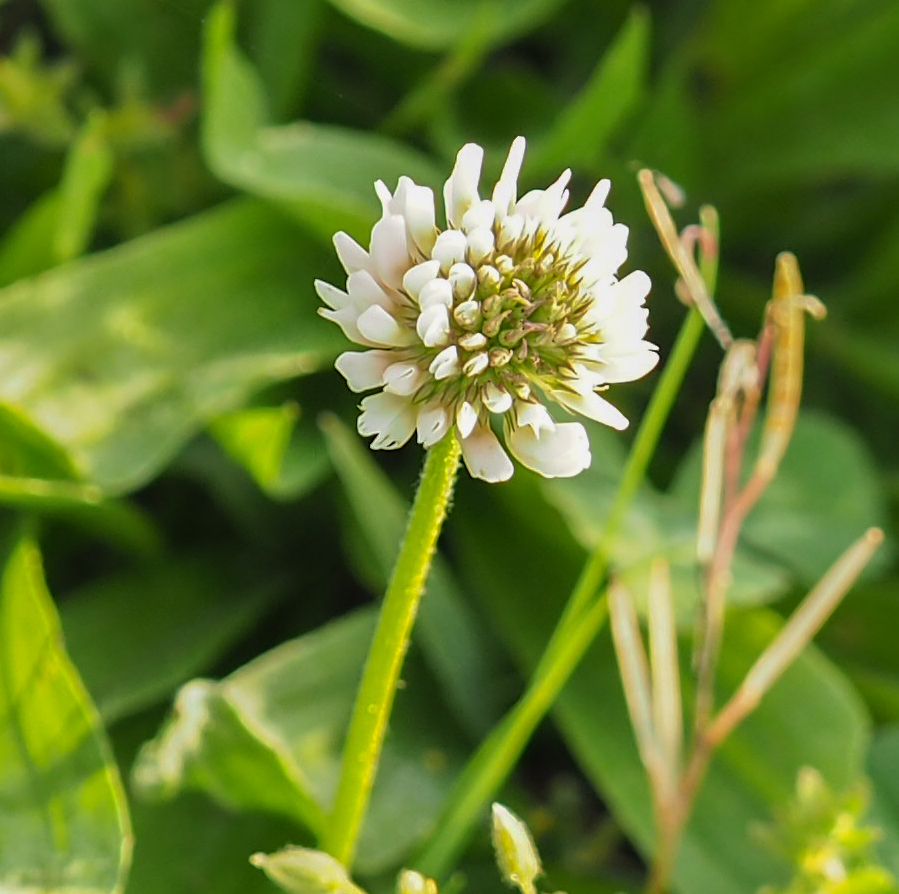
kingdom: Plantae
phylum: Tracheophyta
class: Magnoliopsida
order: Fabales
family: Fabaceae
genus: Trifolium
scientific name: Trifolium repens
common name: White clover
